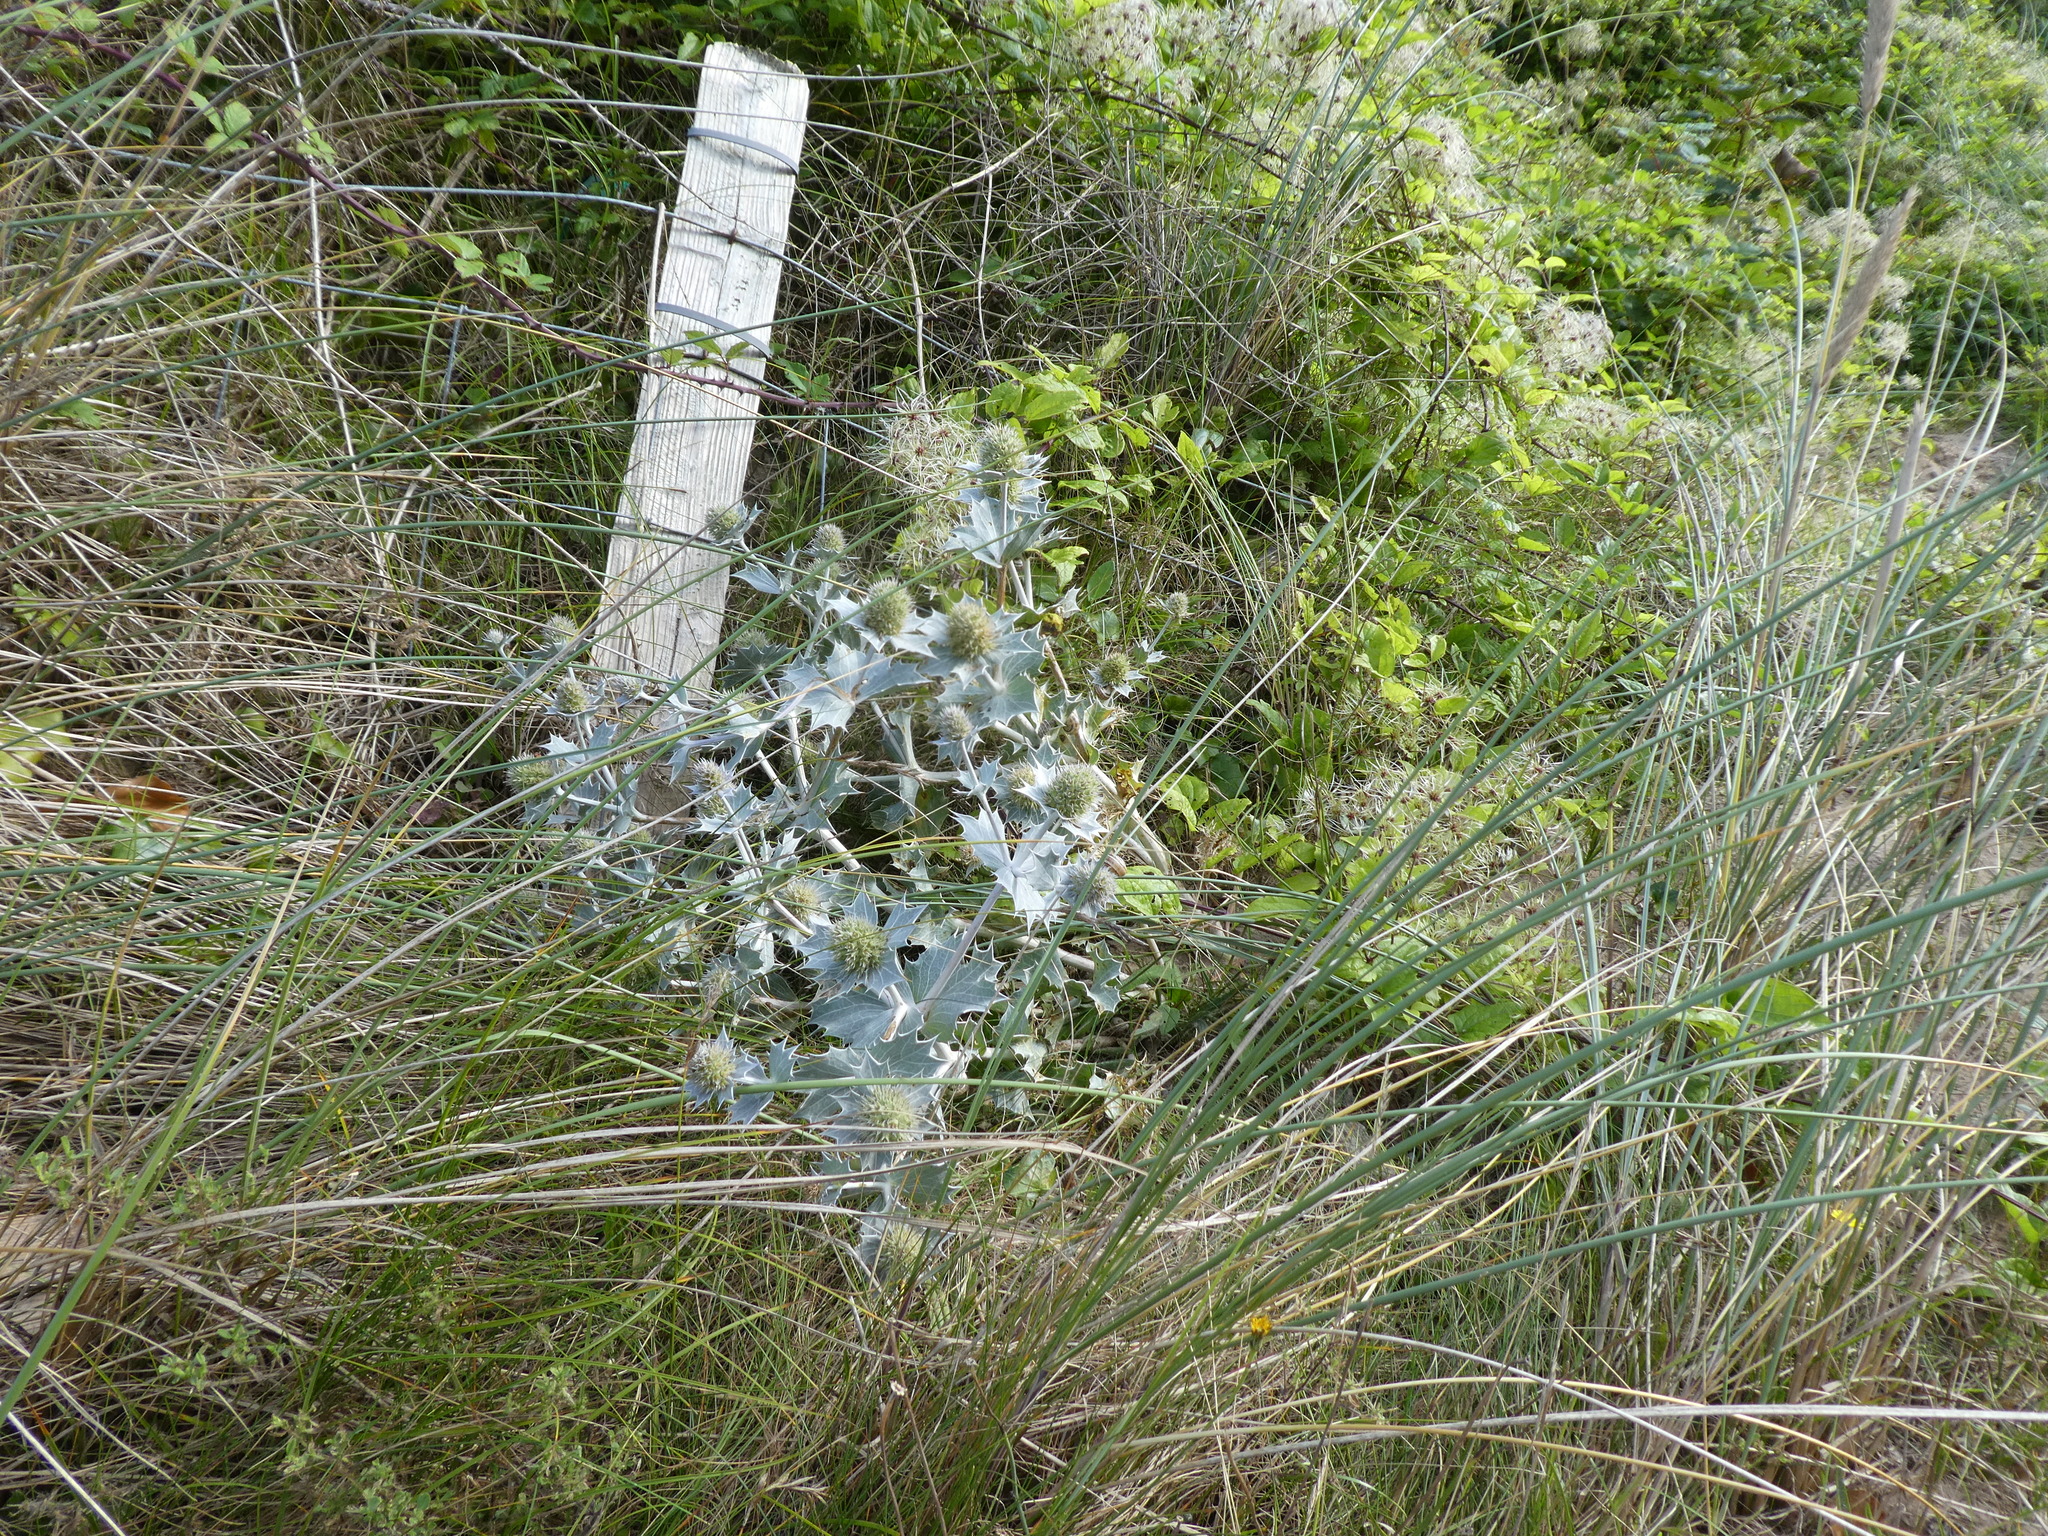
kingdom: Plantae
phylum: Tracheophyta
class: Magnoliopsida
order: Apiales
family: Apiaceae
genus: Eryngium
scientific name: Eryngium maritimum
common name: Sea-holly
